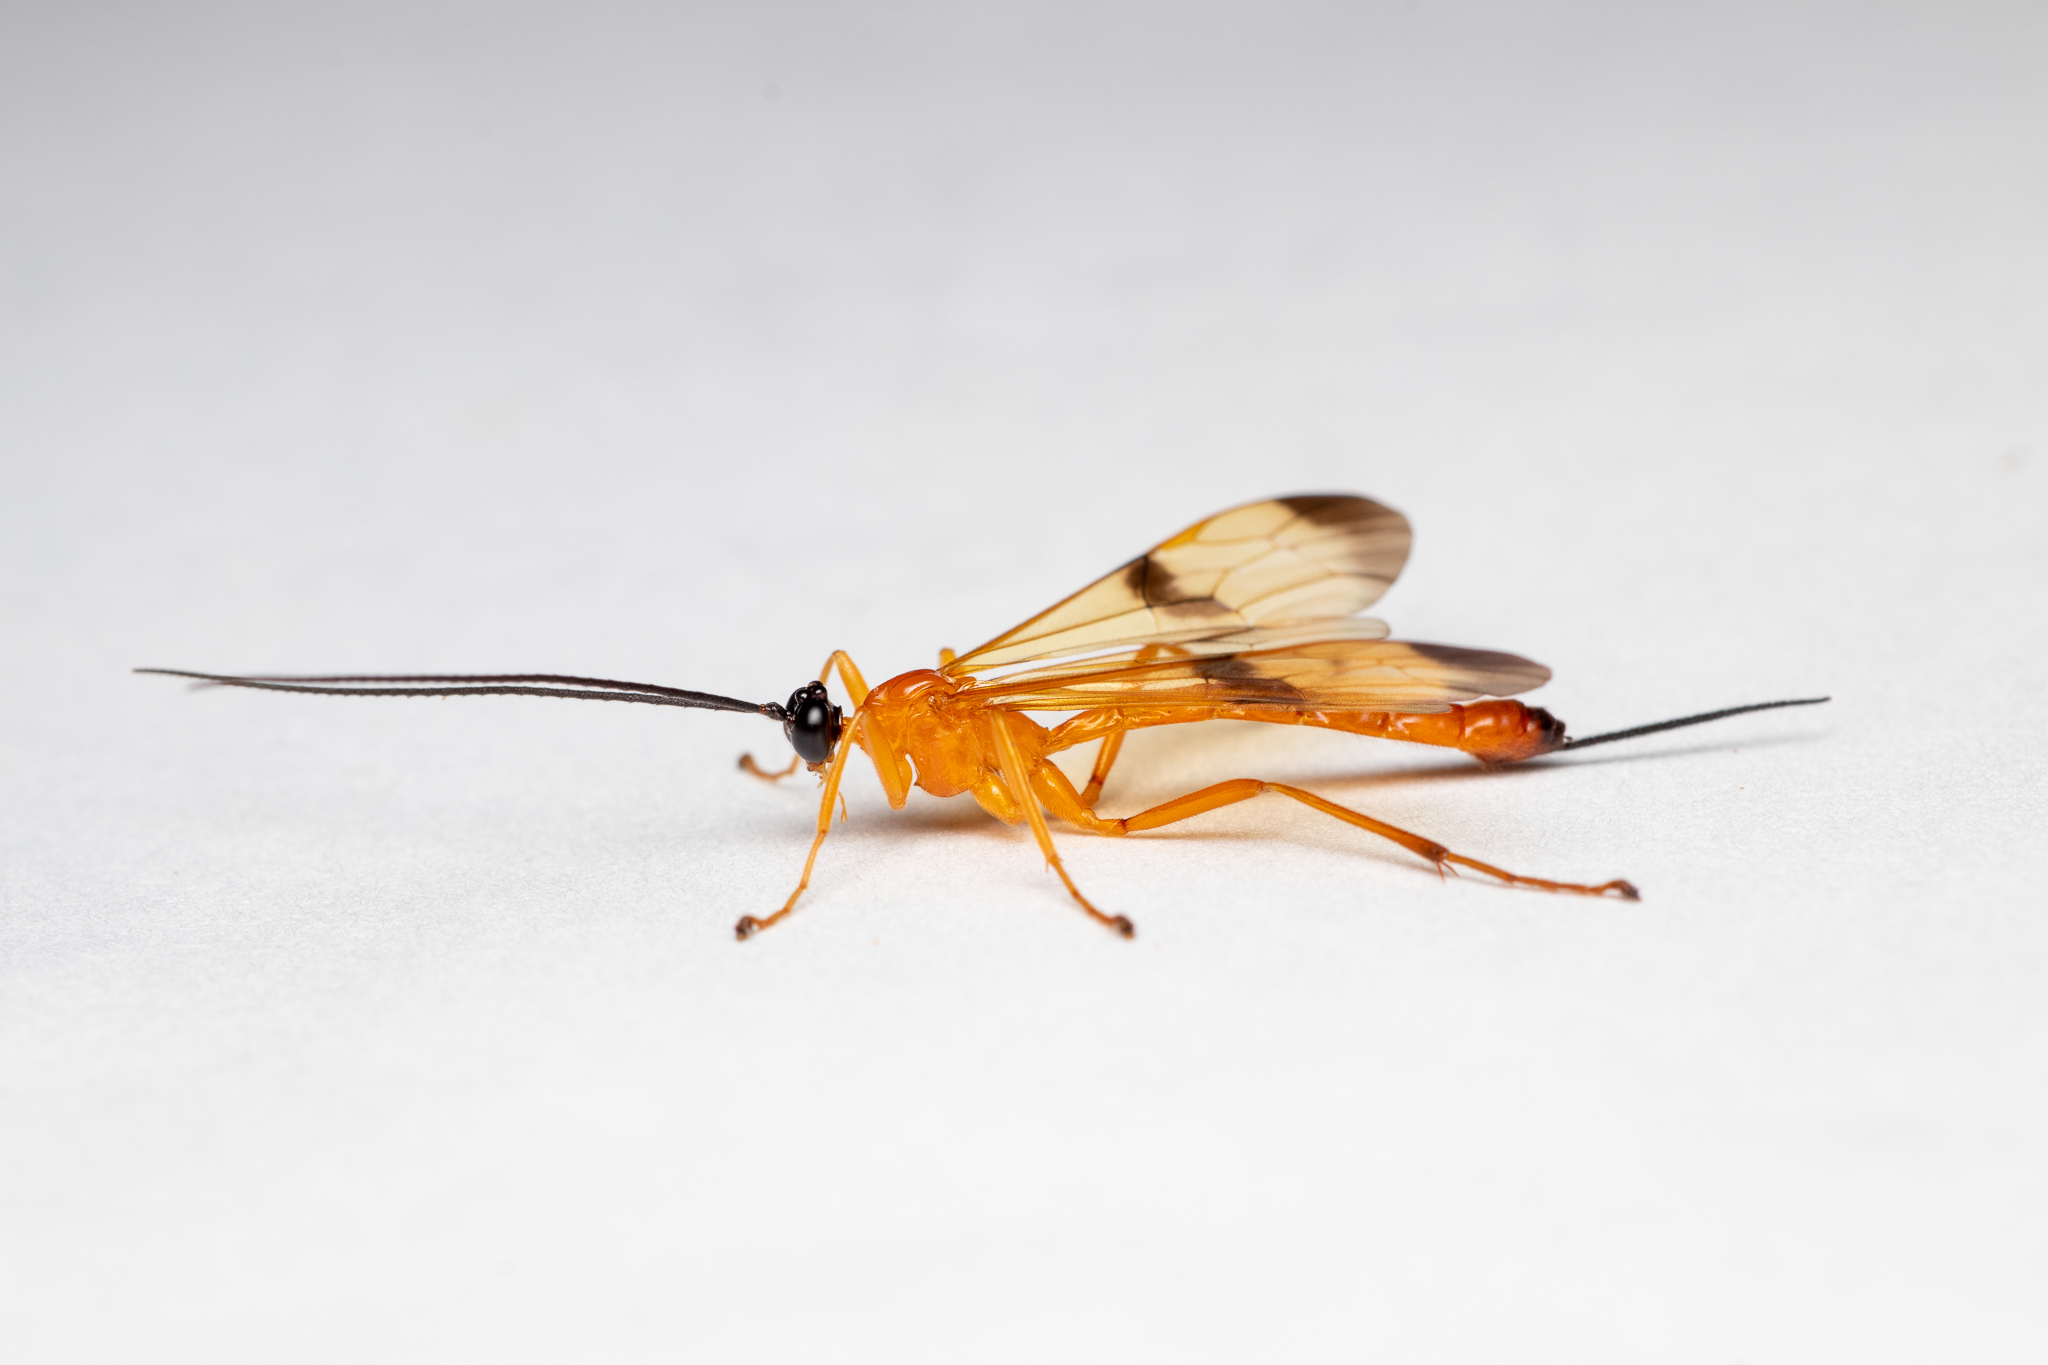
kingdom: Animalia
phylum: Arthropoda
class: Insecta
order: Hymenoptera
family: Ichneumonidae
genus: Acrotaphus
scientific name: Acrotaphus wiltii
